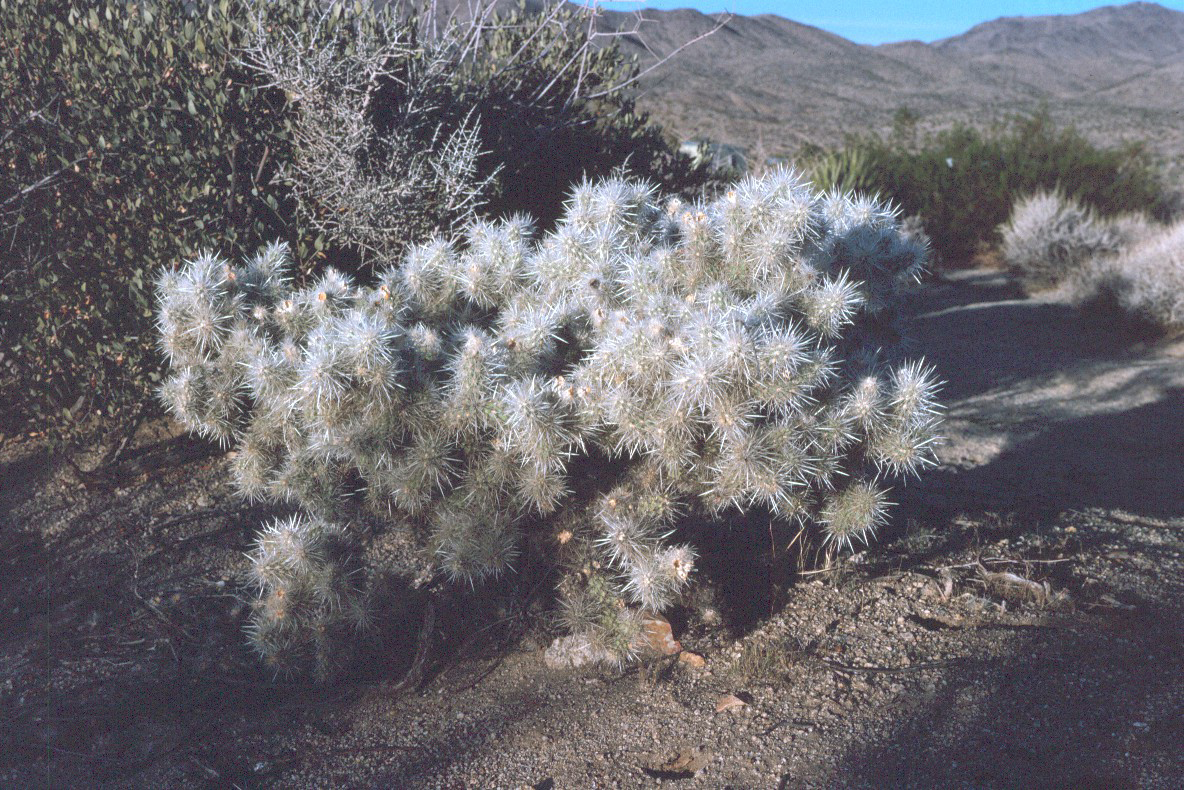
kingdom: Plantae
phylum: Tracheophyta
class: Magnoliopsida
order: Caryophyllales
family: Cactaceae
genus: Cylindropuntia
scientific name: Cylindropuntia echinocarpa
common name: Ground cholla
